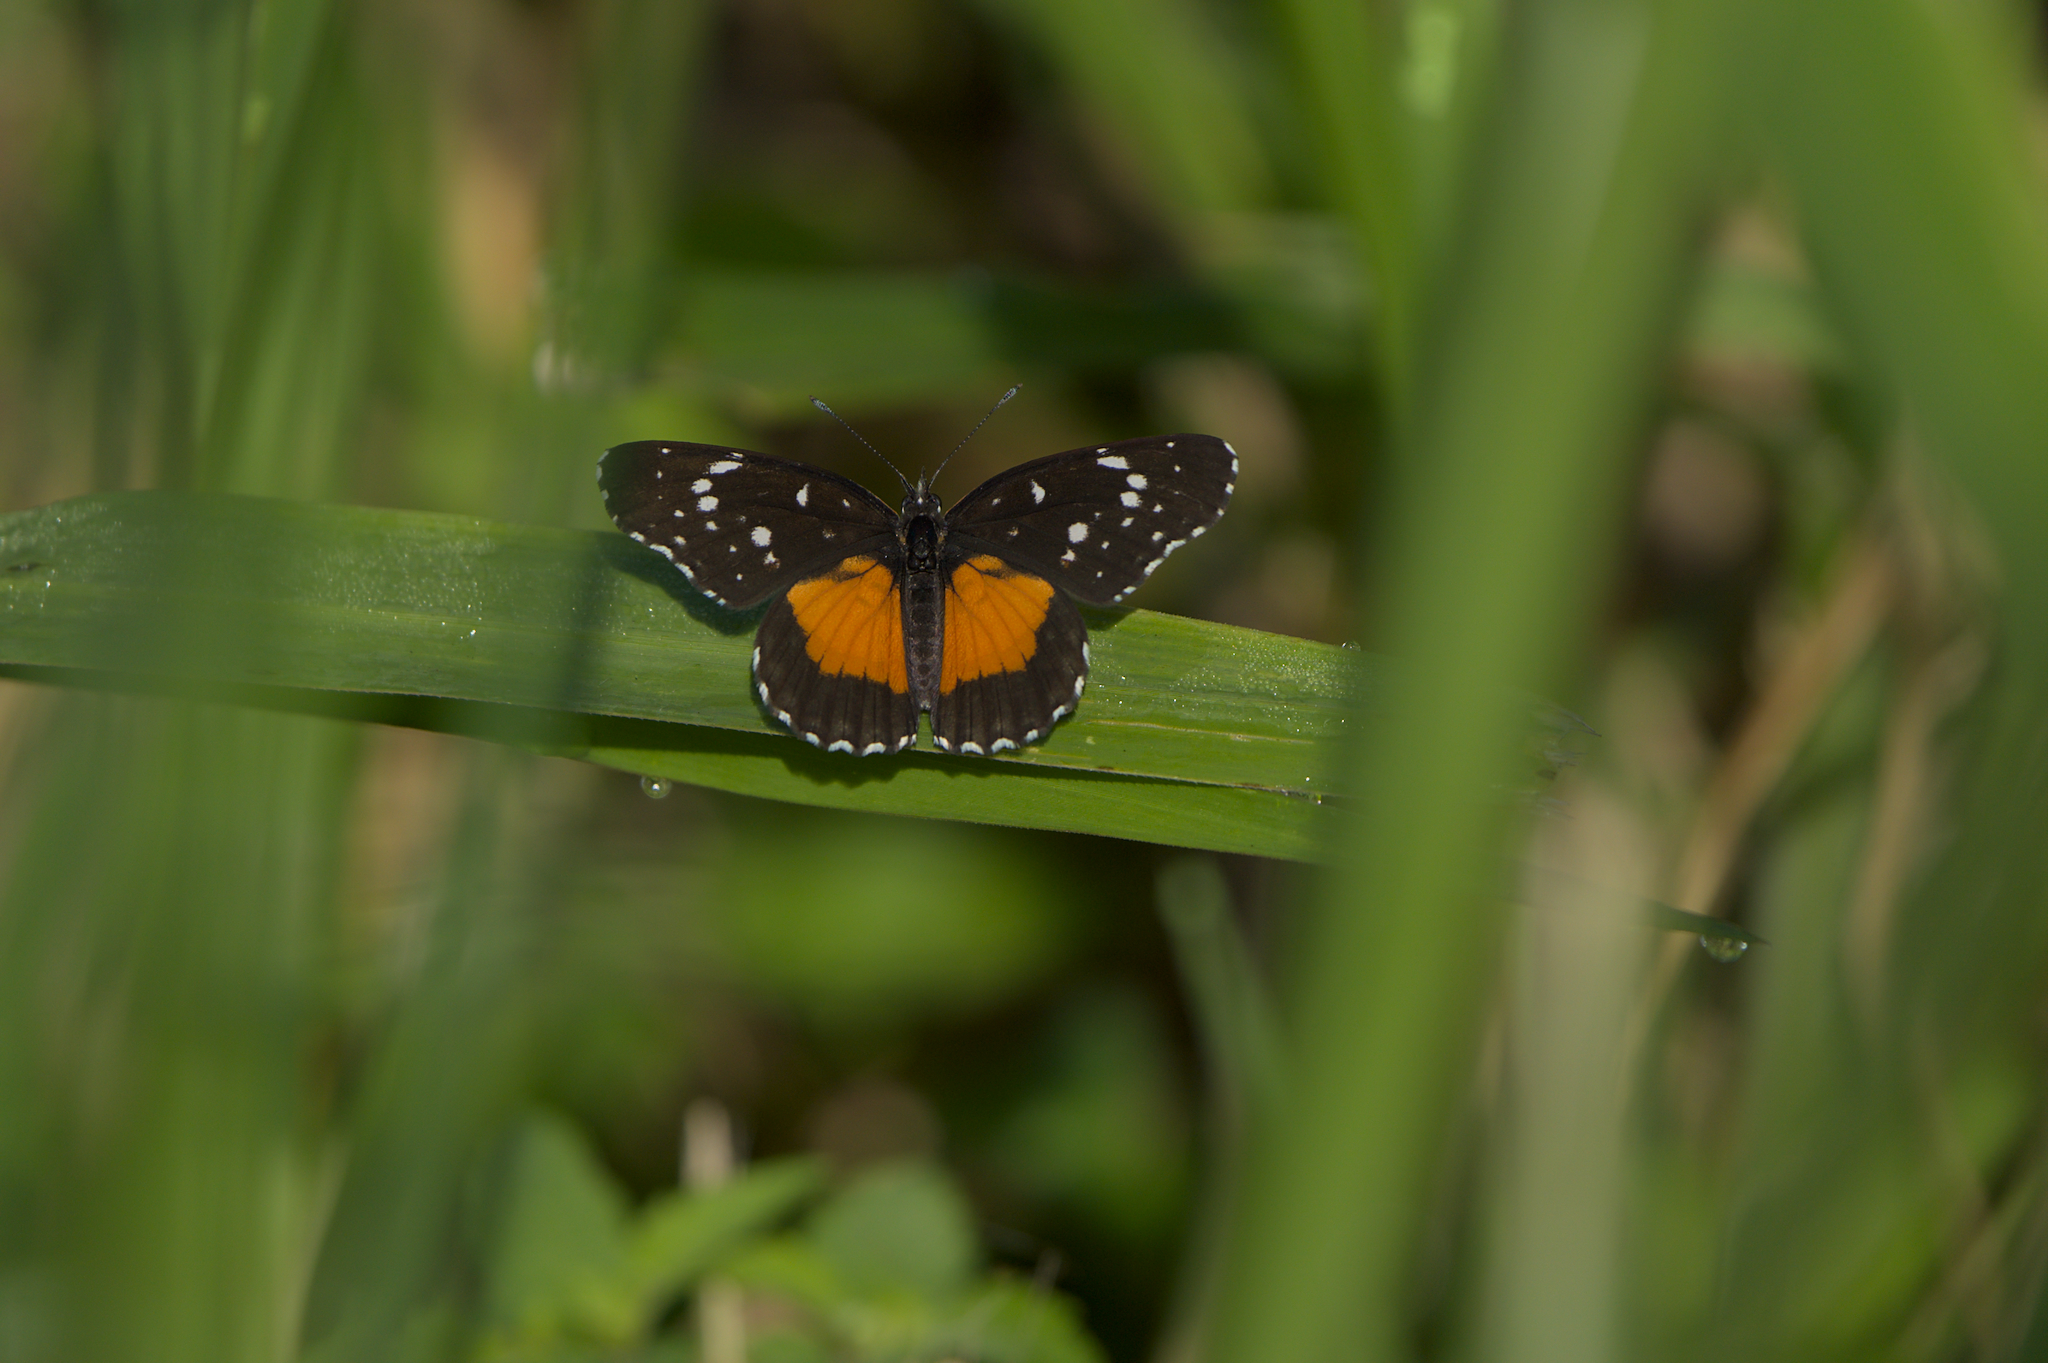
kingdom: Animalia
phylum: Arthropoda
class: Insecta
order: Lepidoptera
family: Nymphalidae
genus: Chlosyne
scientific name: Chlosyne lacinia
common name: Bordered patch
